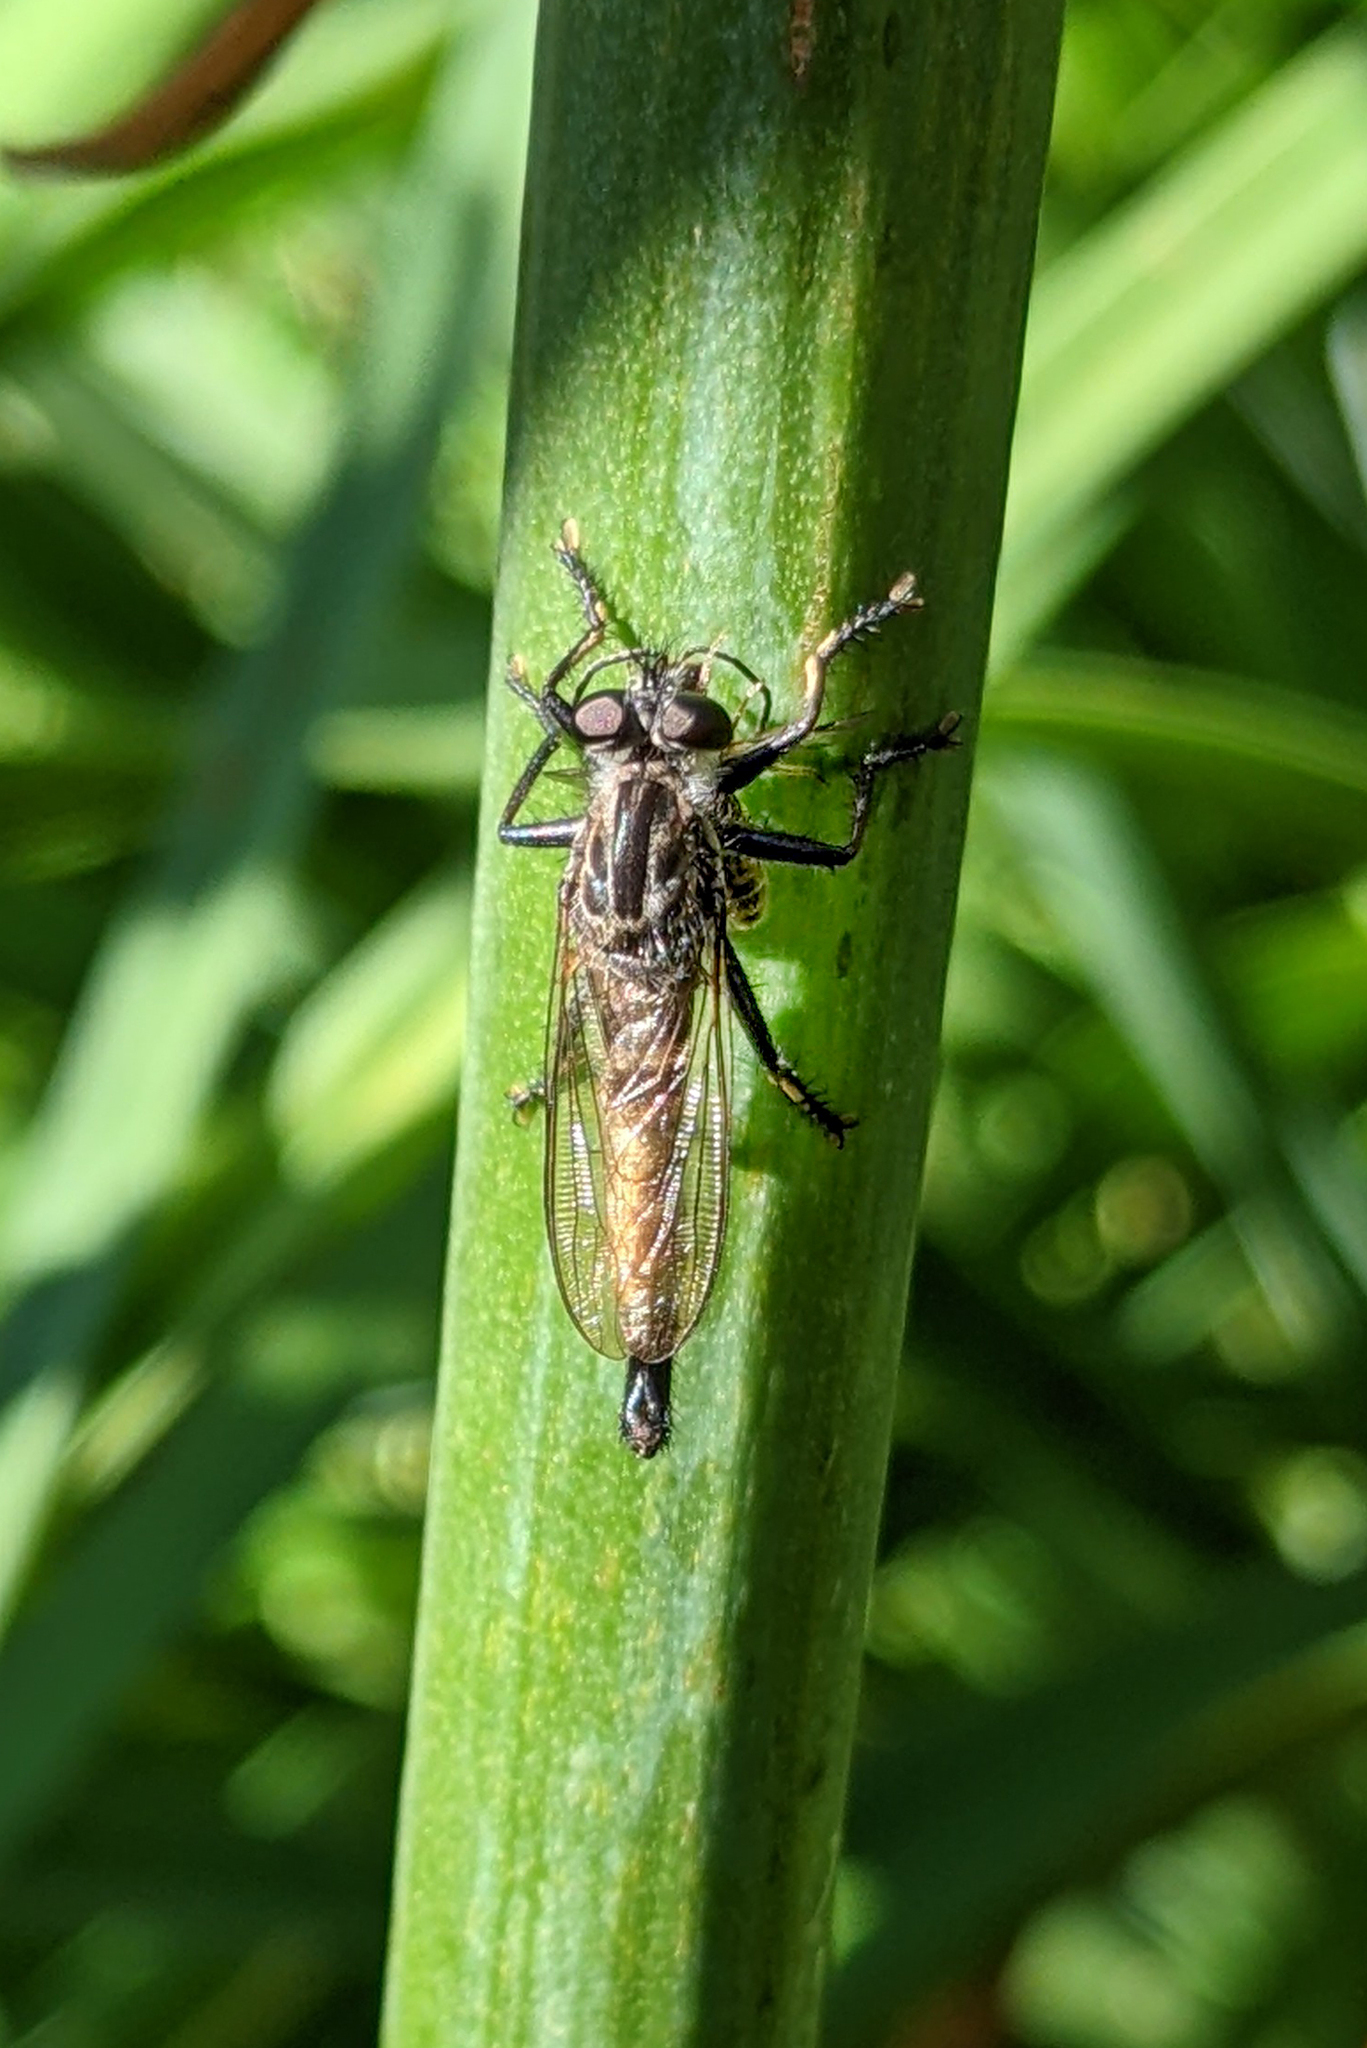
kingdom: Animalia
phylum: Arthropoda
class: Insecta
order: Diptera
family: Asilidae
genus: Efferia
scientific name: Efferia aestuans
